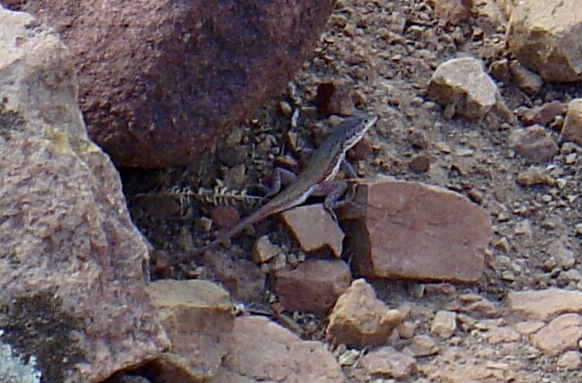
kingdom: Animalia
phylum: Chordata
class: Squamata
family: Lacertidae
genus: Pedioplanis
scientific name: Pedioplanis lineoocellata
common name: Spotted sand lizard
